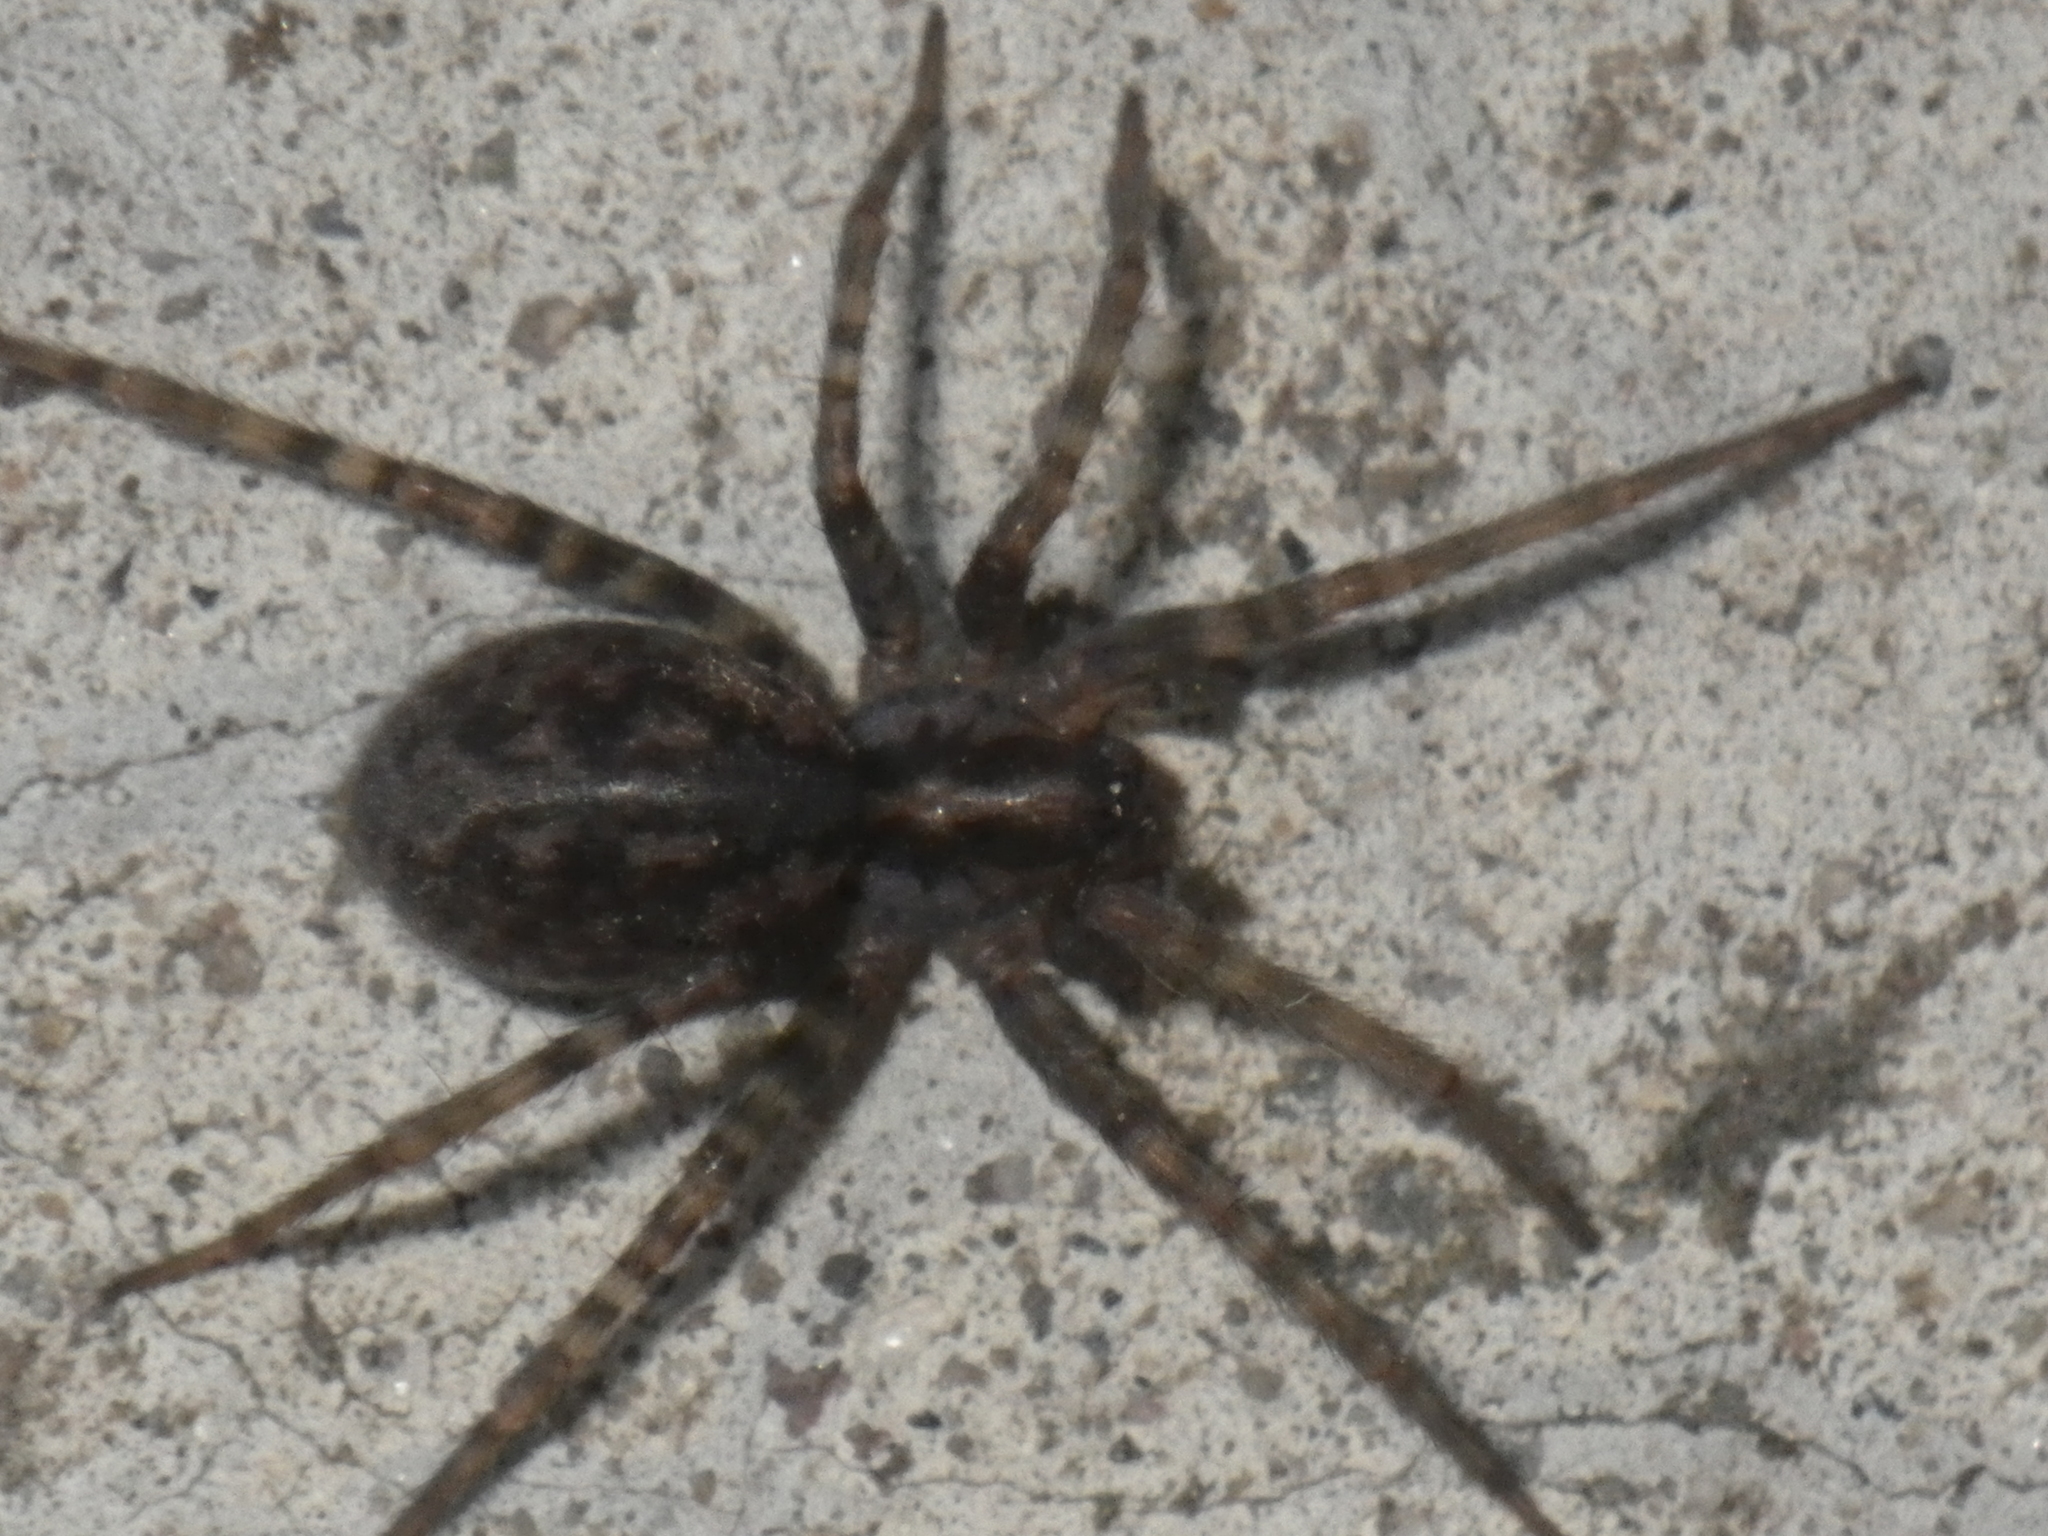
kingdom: Animalia
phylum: Arthropoda
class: Arachnida
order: Araneae
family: Agelenidae
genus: Tegenaria
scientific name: Tegenaria
